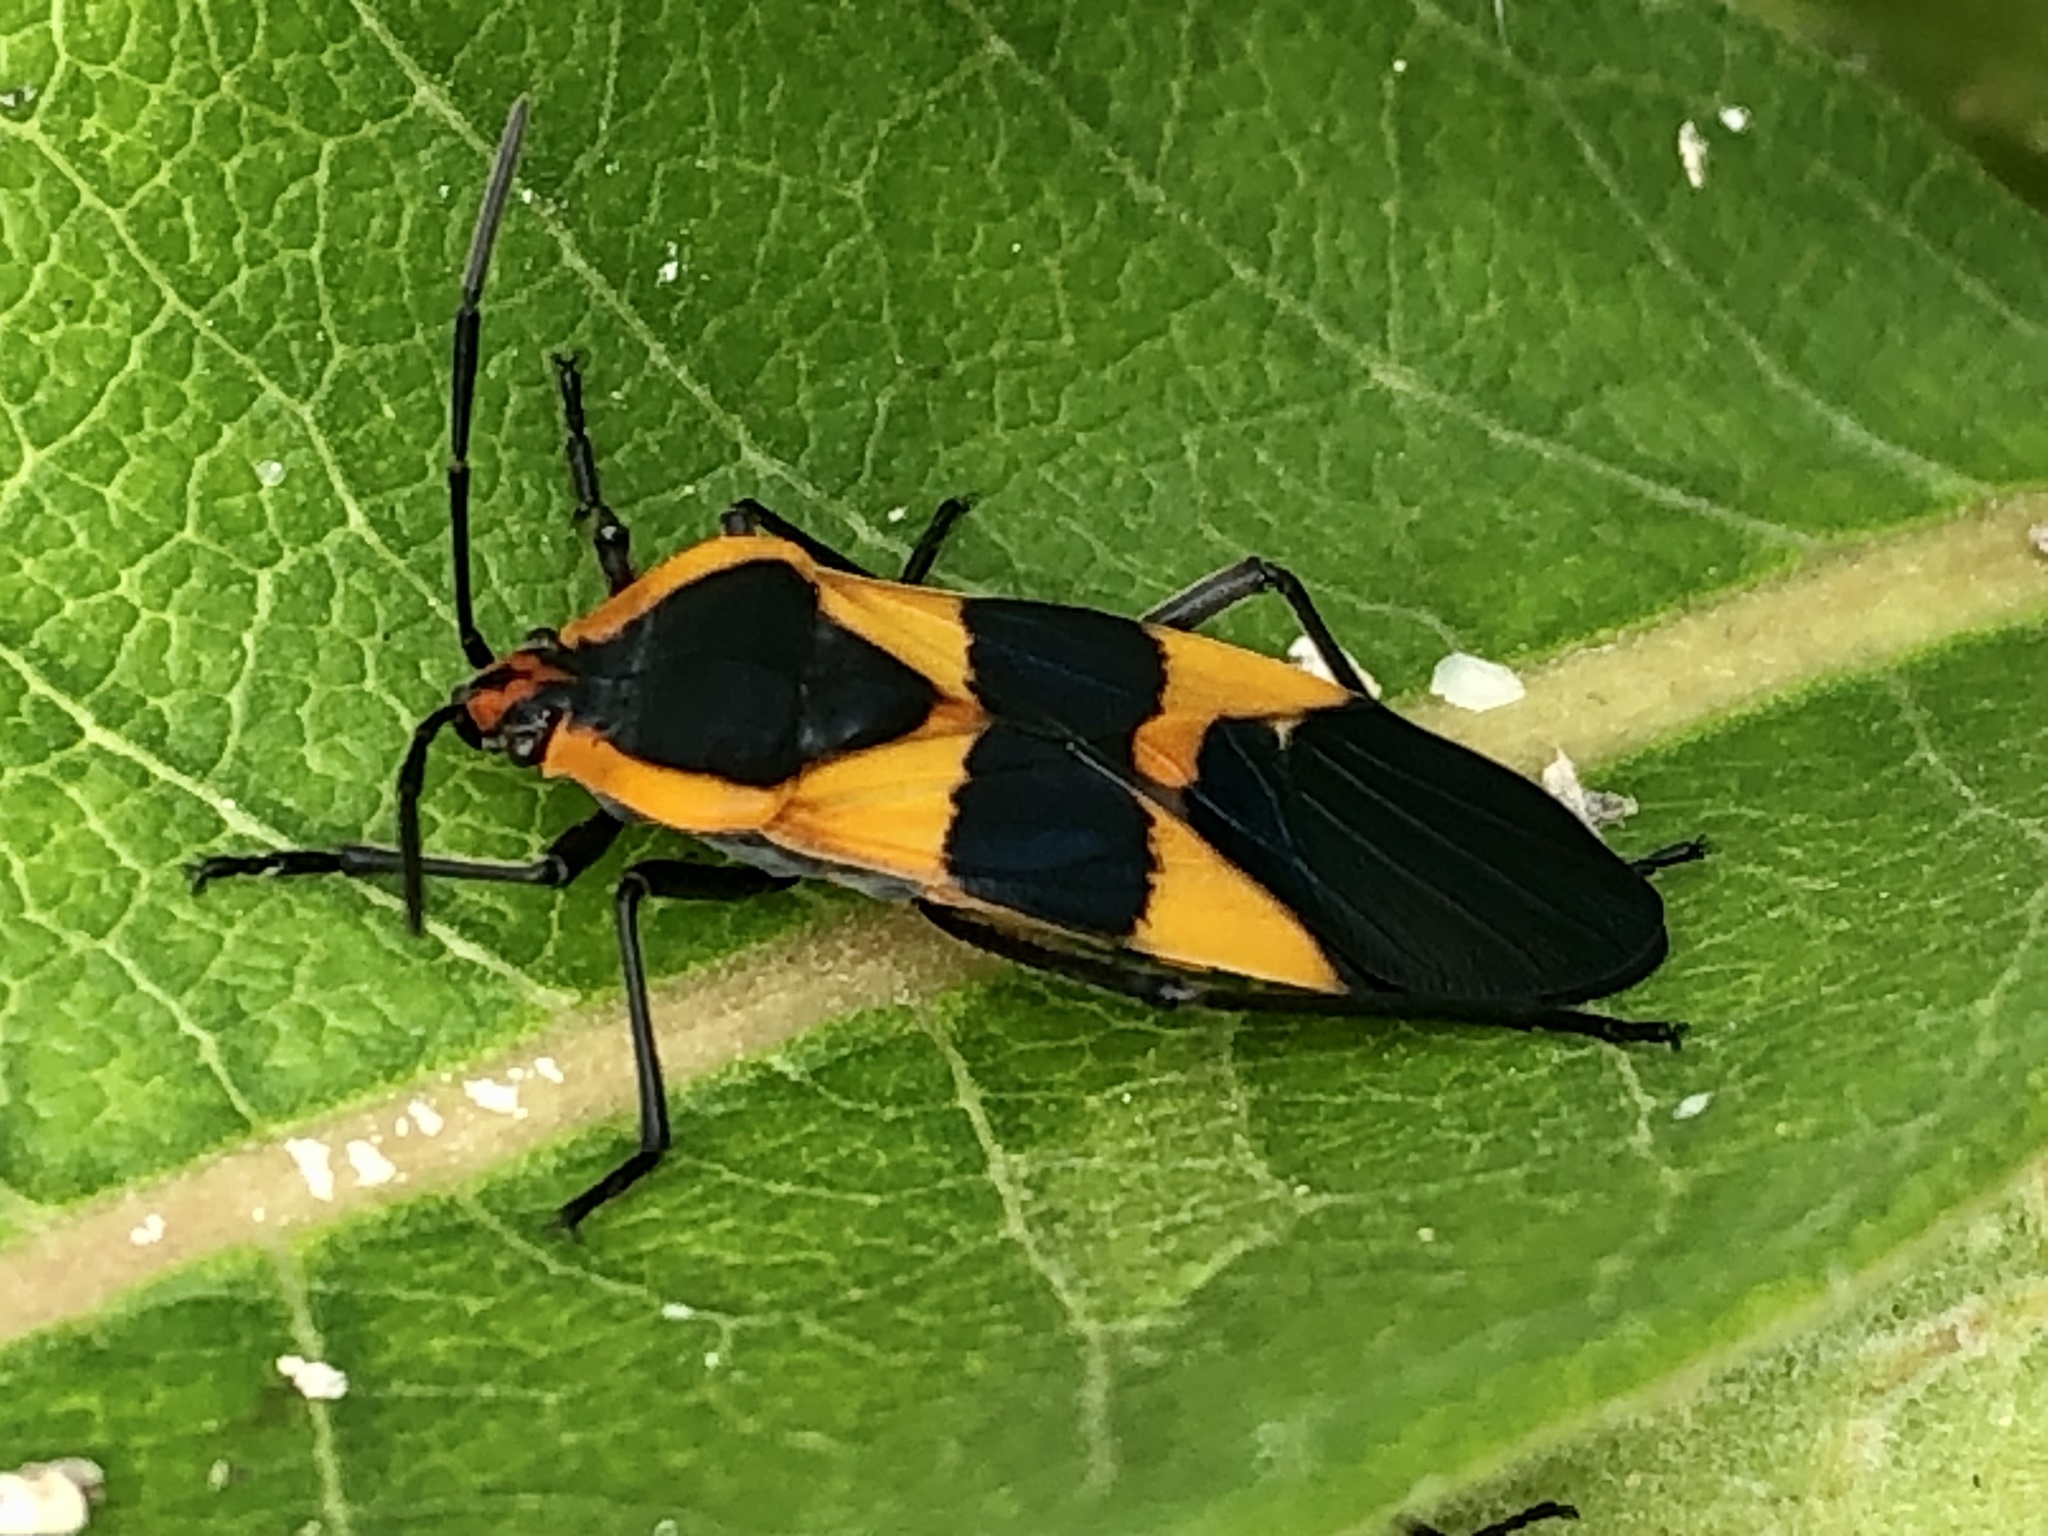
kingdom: Animalia
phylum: Arthropoda
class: Insecta
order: Hemiptera
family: Lygaeidae
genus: Oncopeltus
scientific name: Oncopeltus fasciatus
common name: Large milkweed bug
